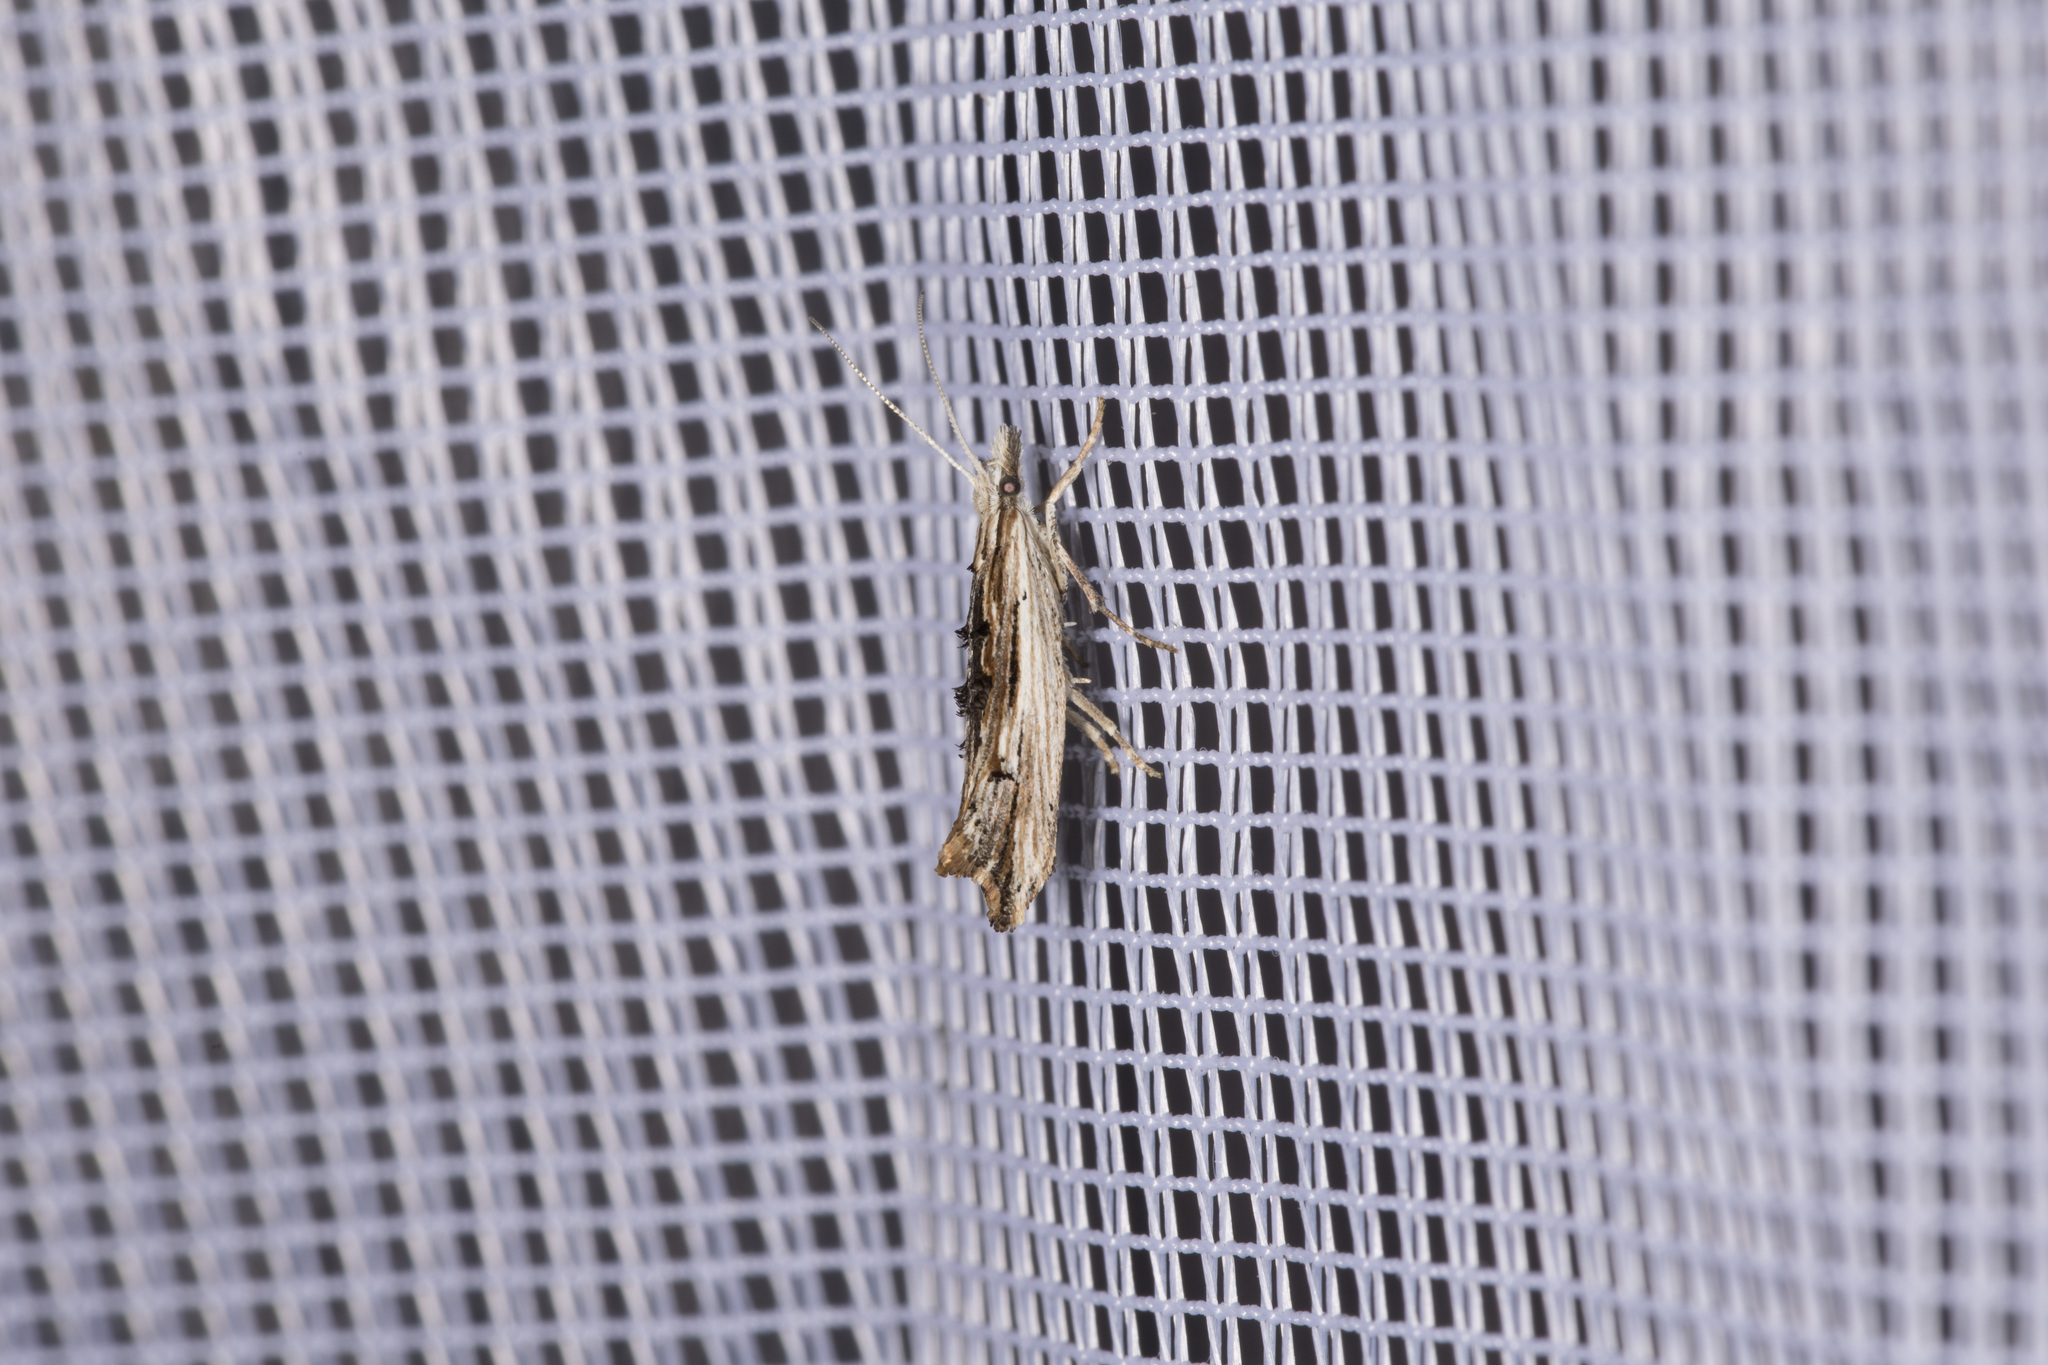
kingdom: Animalia
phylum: Arthropoda
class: Insecta
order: Lepidoptera
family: Ypsolophidae
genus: Ypsolopha
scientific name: Ypsolopha scabrella
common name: Wainscot smudge
